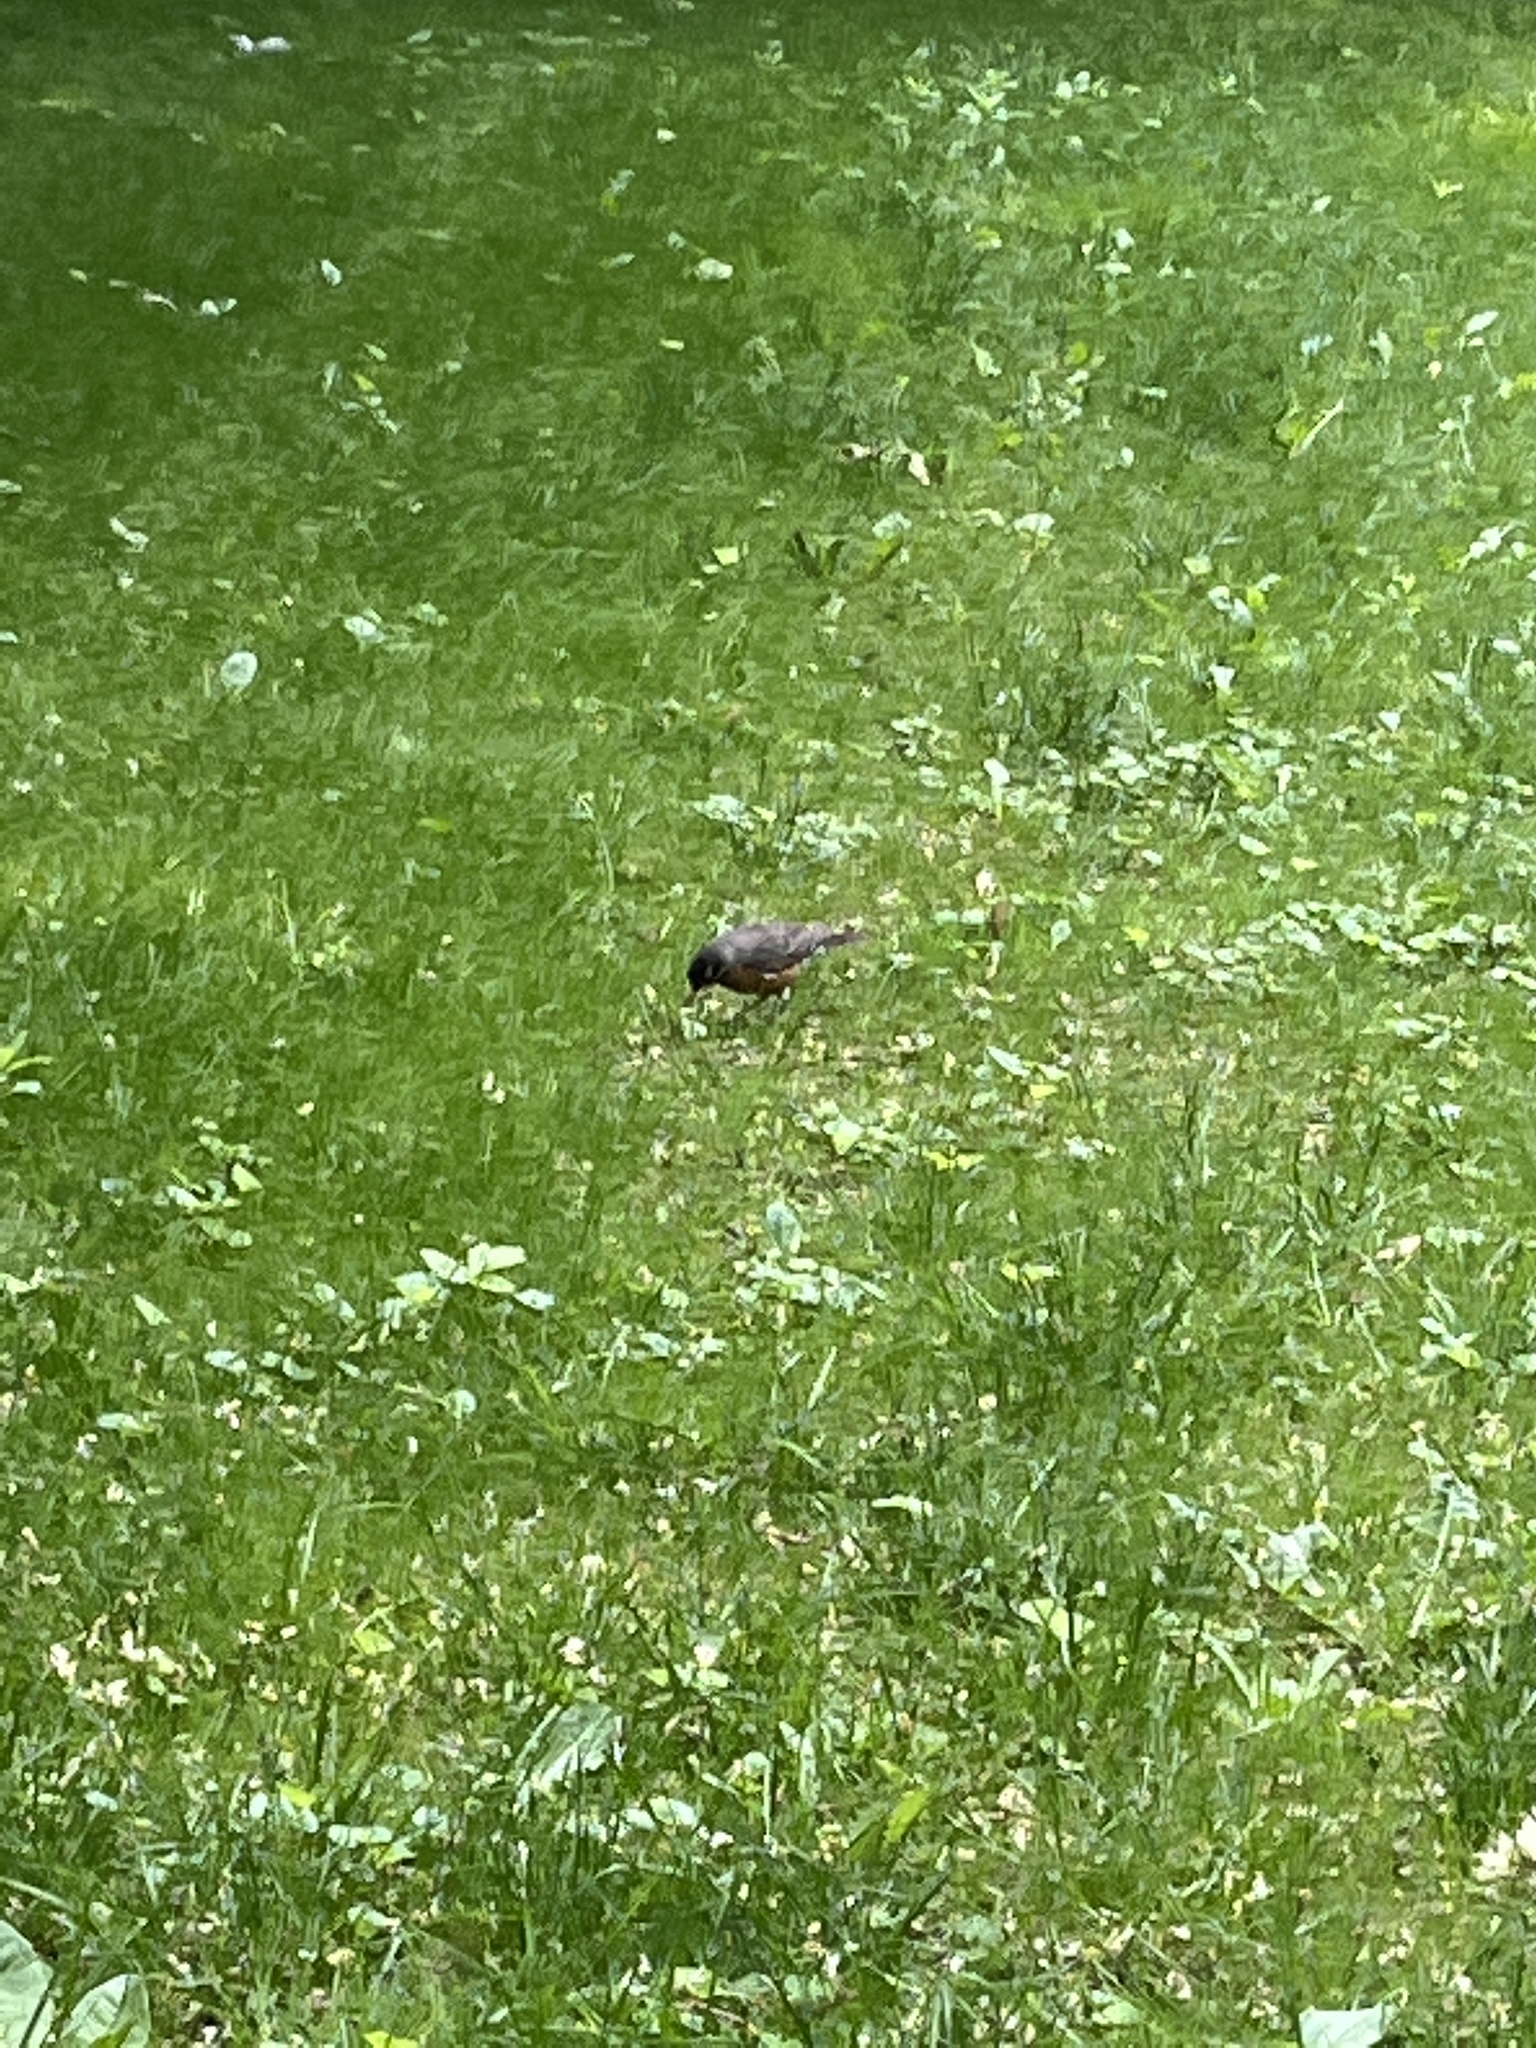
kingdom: Animalia
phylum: Chordata
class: Aves
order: Passeriformes
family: Turdidae
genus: Turdus
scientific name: Turdus migratorius
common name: American robin
